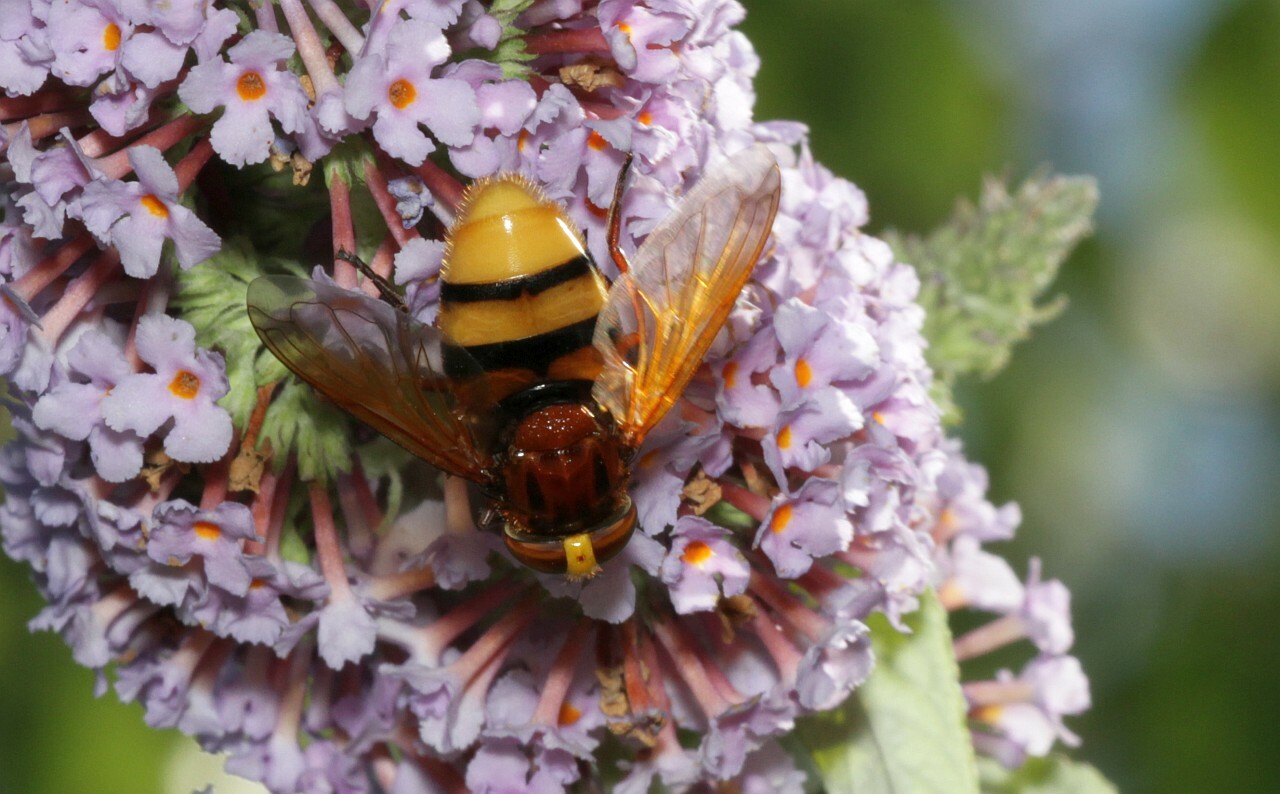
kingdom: Animalia
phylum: Arthropoda
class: Insecta
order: Diptera
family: Syrphidae
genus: Volucella
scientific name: Volucella zonaria
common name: Hornet hoverfly
